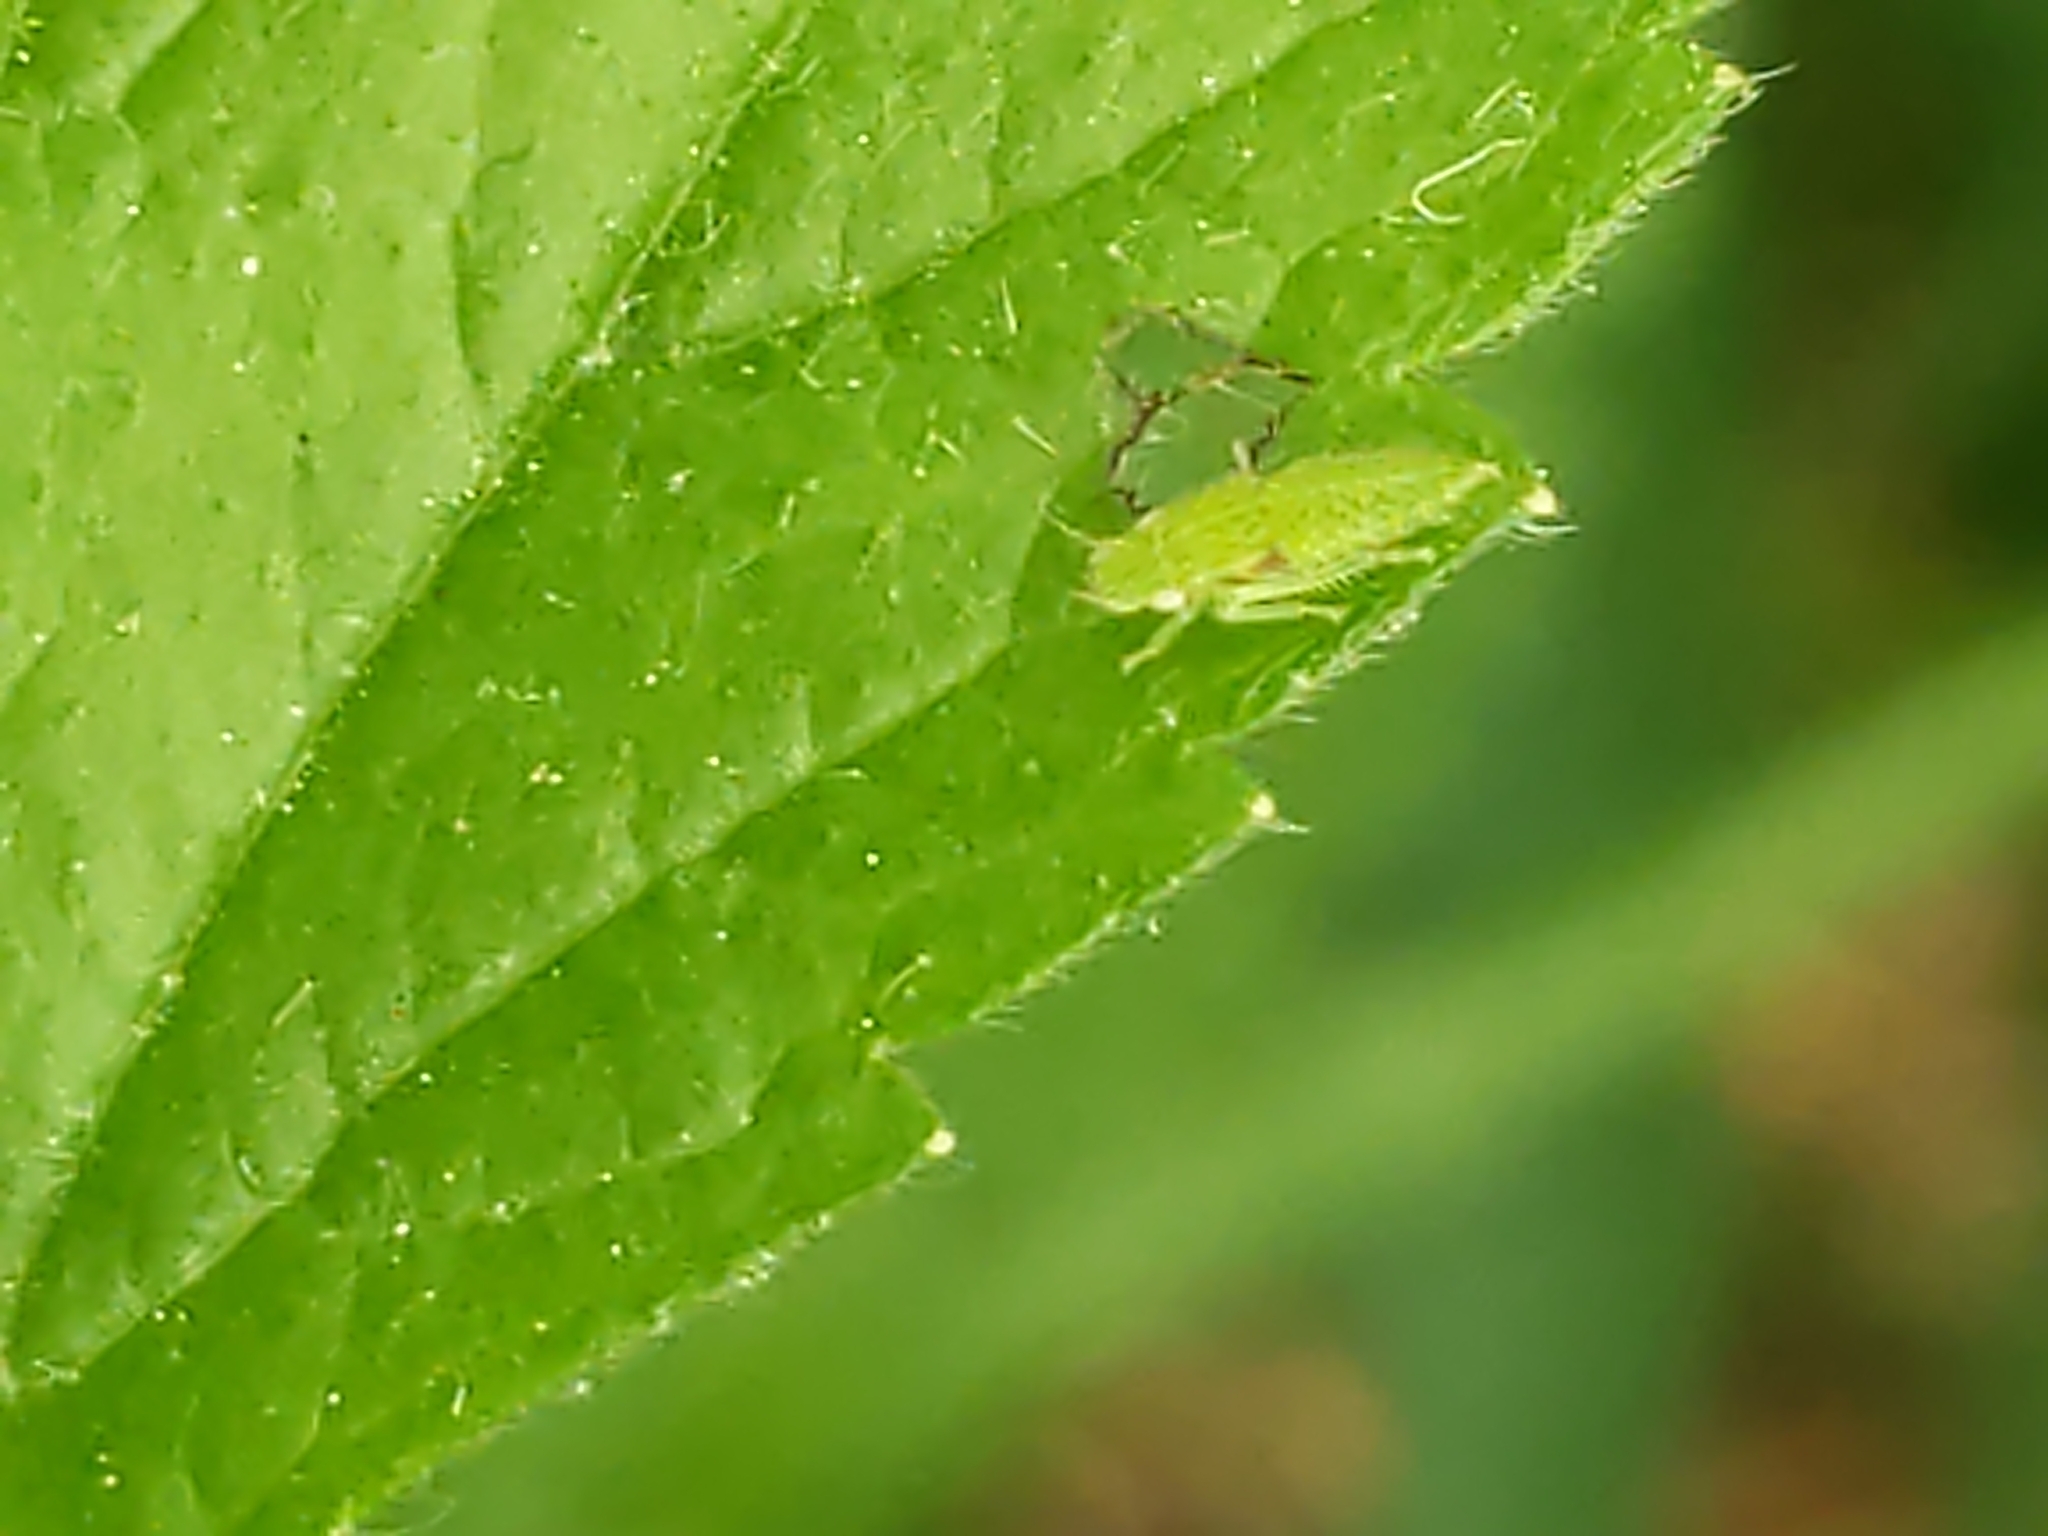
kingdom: Animalia
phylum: Arthropoda
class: Insecta
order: Hemiptera
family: Cicadellidae
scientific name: Cicadellidae
